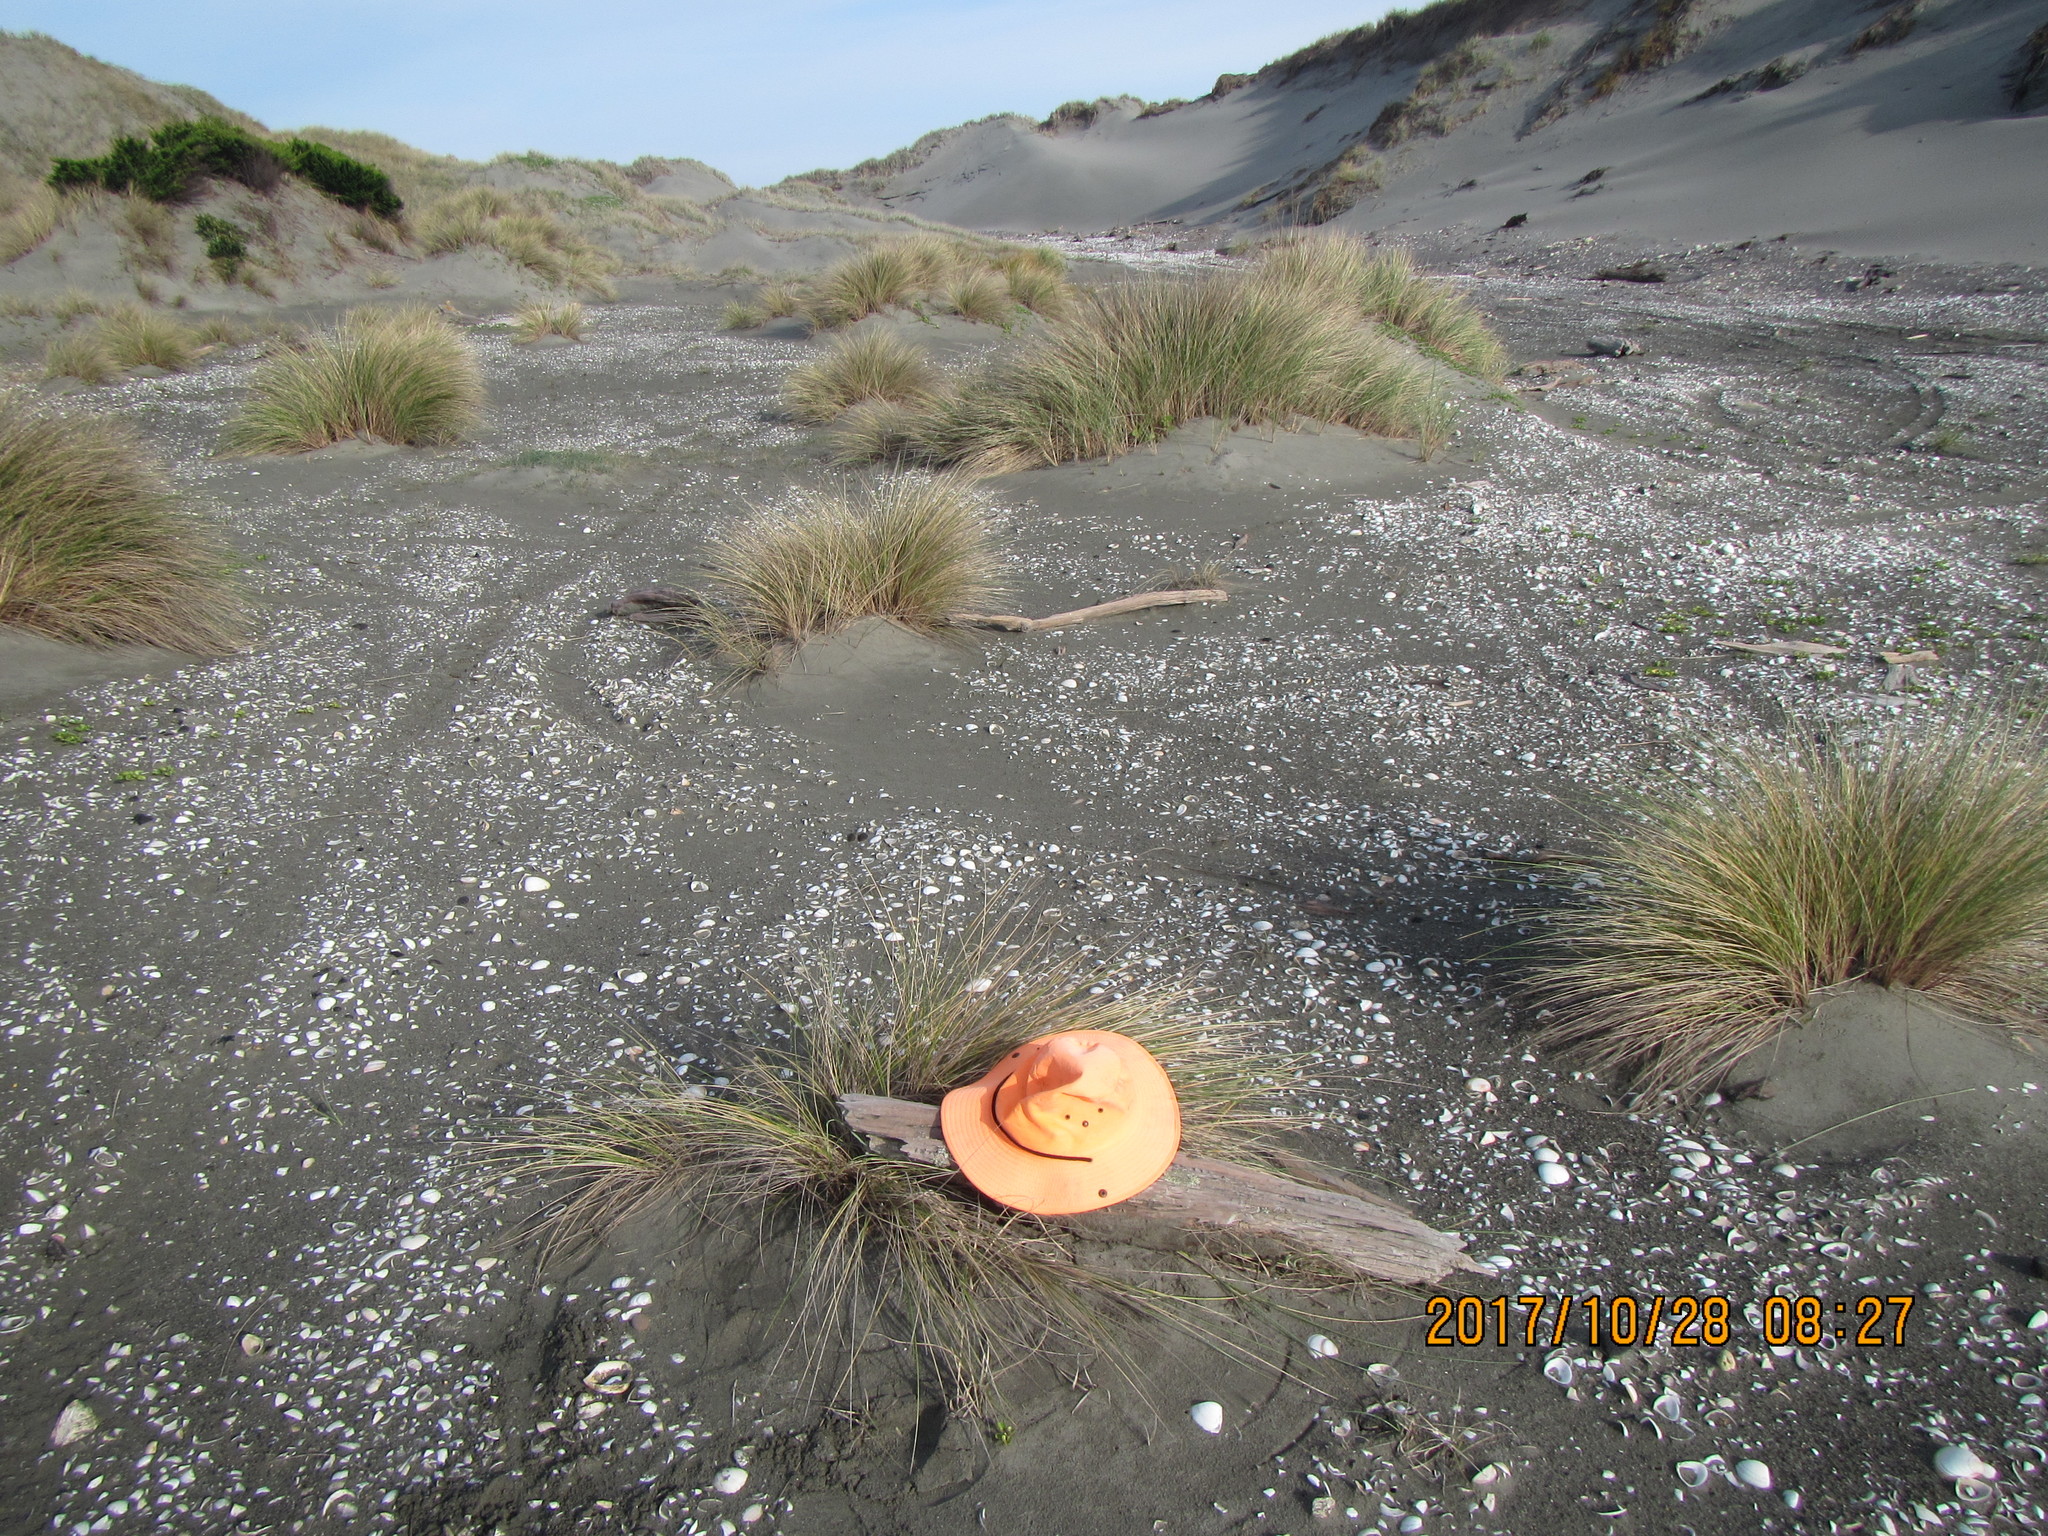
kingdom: Animalia
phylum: Arthropoda
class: Arachnida
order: Araneae
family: Theridiidae
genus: Steatoda
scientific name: Steatoda lepida
